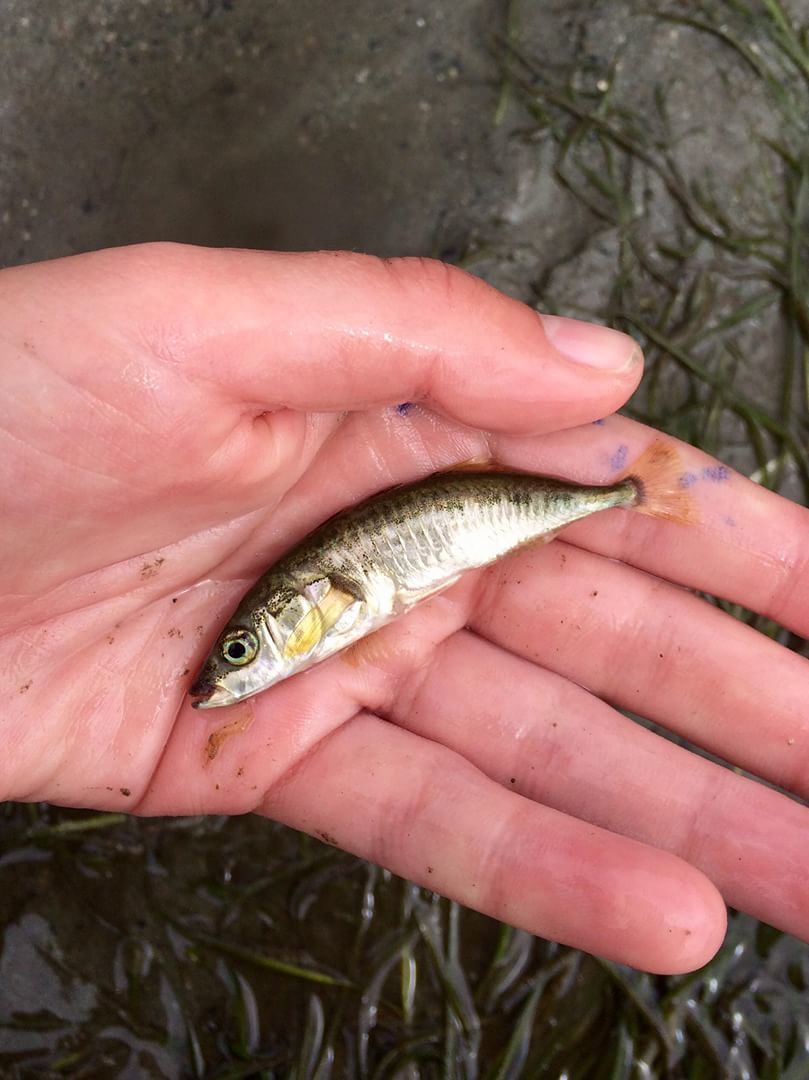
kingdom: Animalia
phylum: Chordata
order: Gasterosteiformes
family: Gasterosteidae
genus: Gasterosteus
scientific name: Gasterosteus aculeatus
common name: Three-spined stickleback
